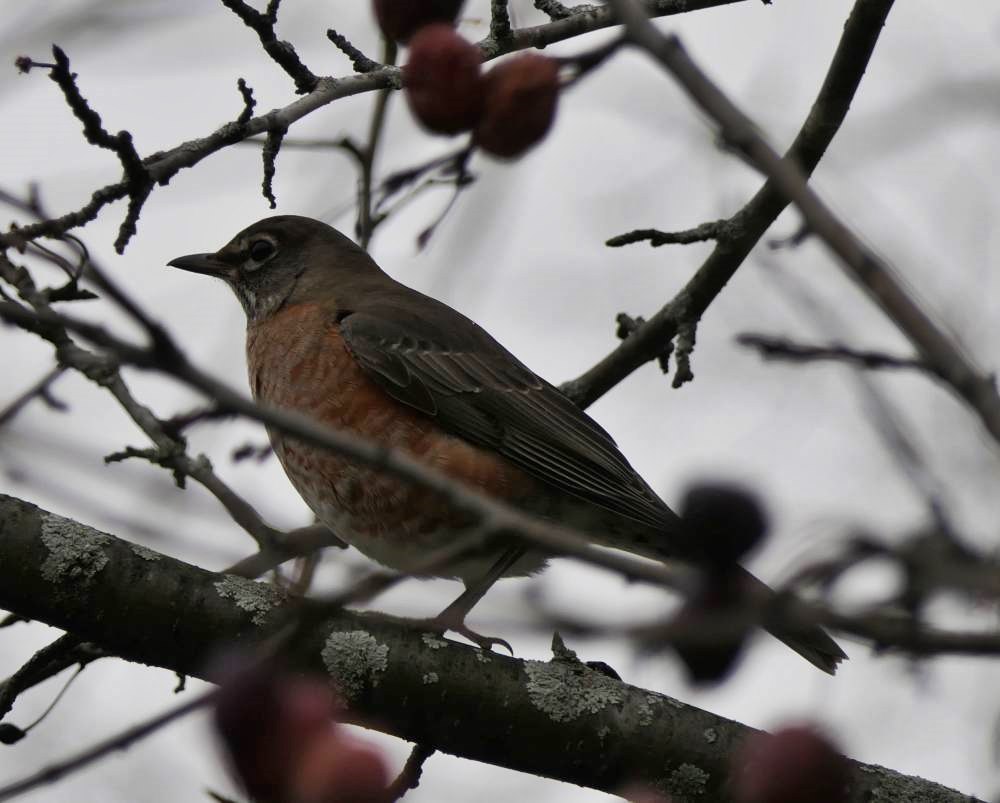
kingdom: Animalia
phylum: Chordata
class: Aves
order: Passeriformes
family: Turdidae
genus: Turdus
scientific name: Turdus migratorius
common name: American robin
